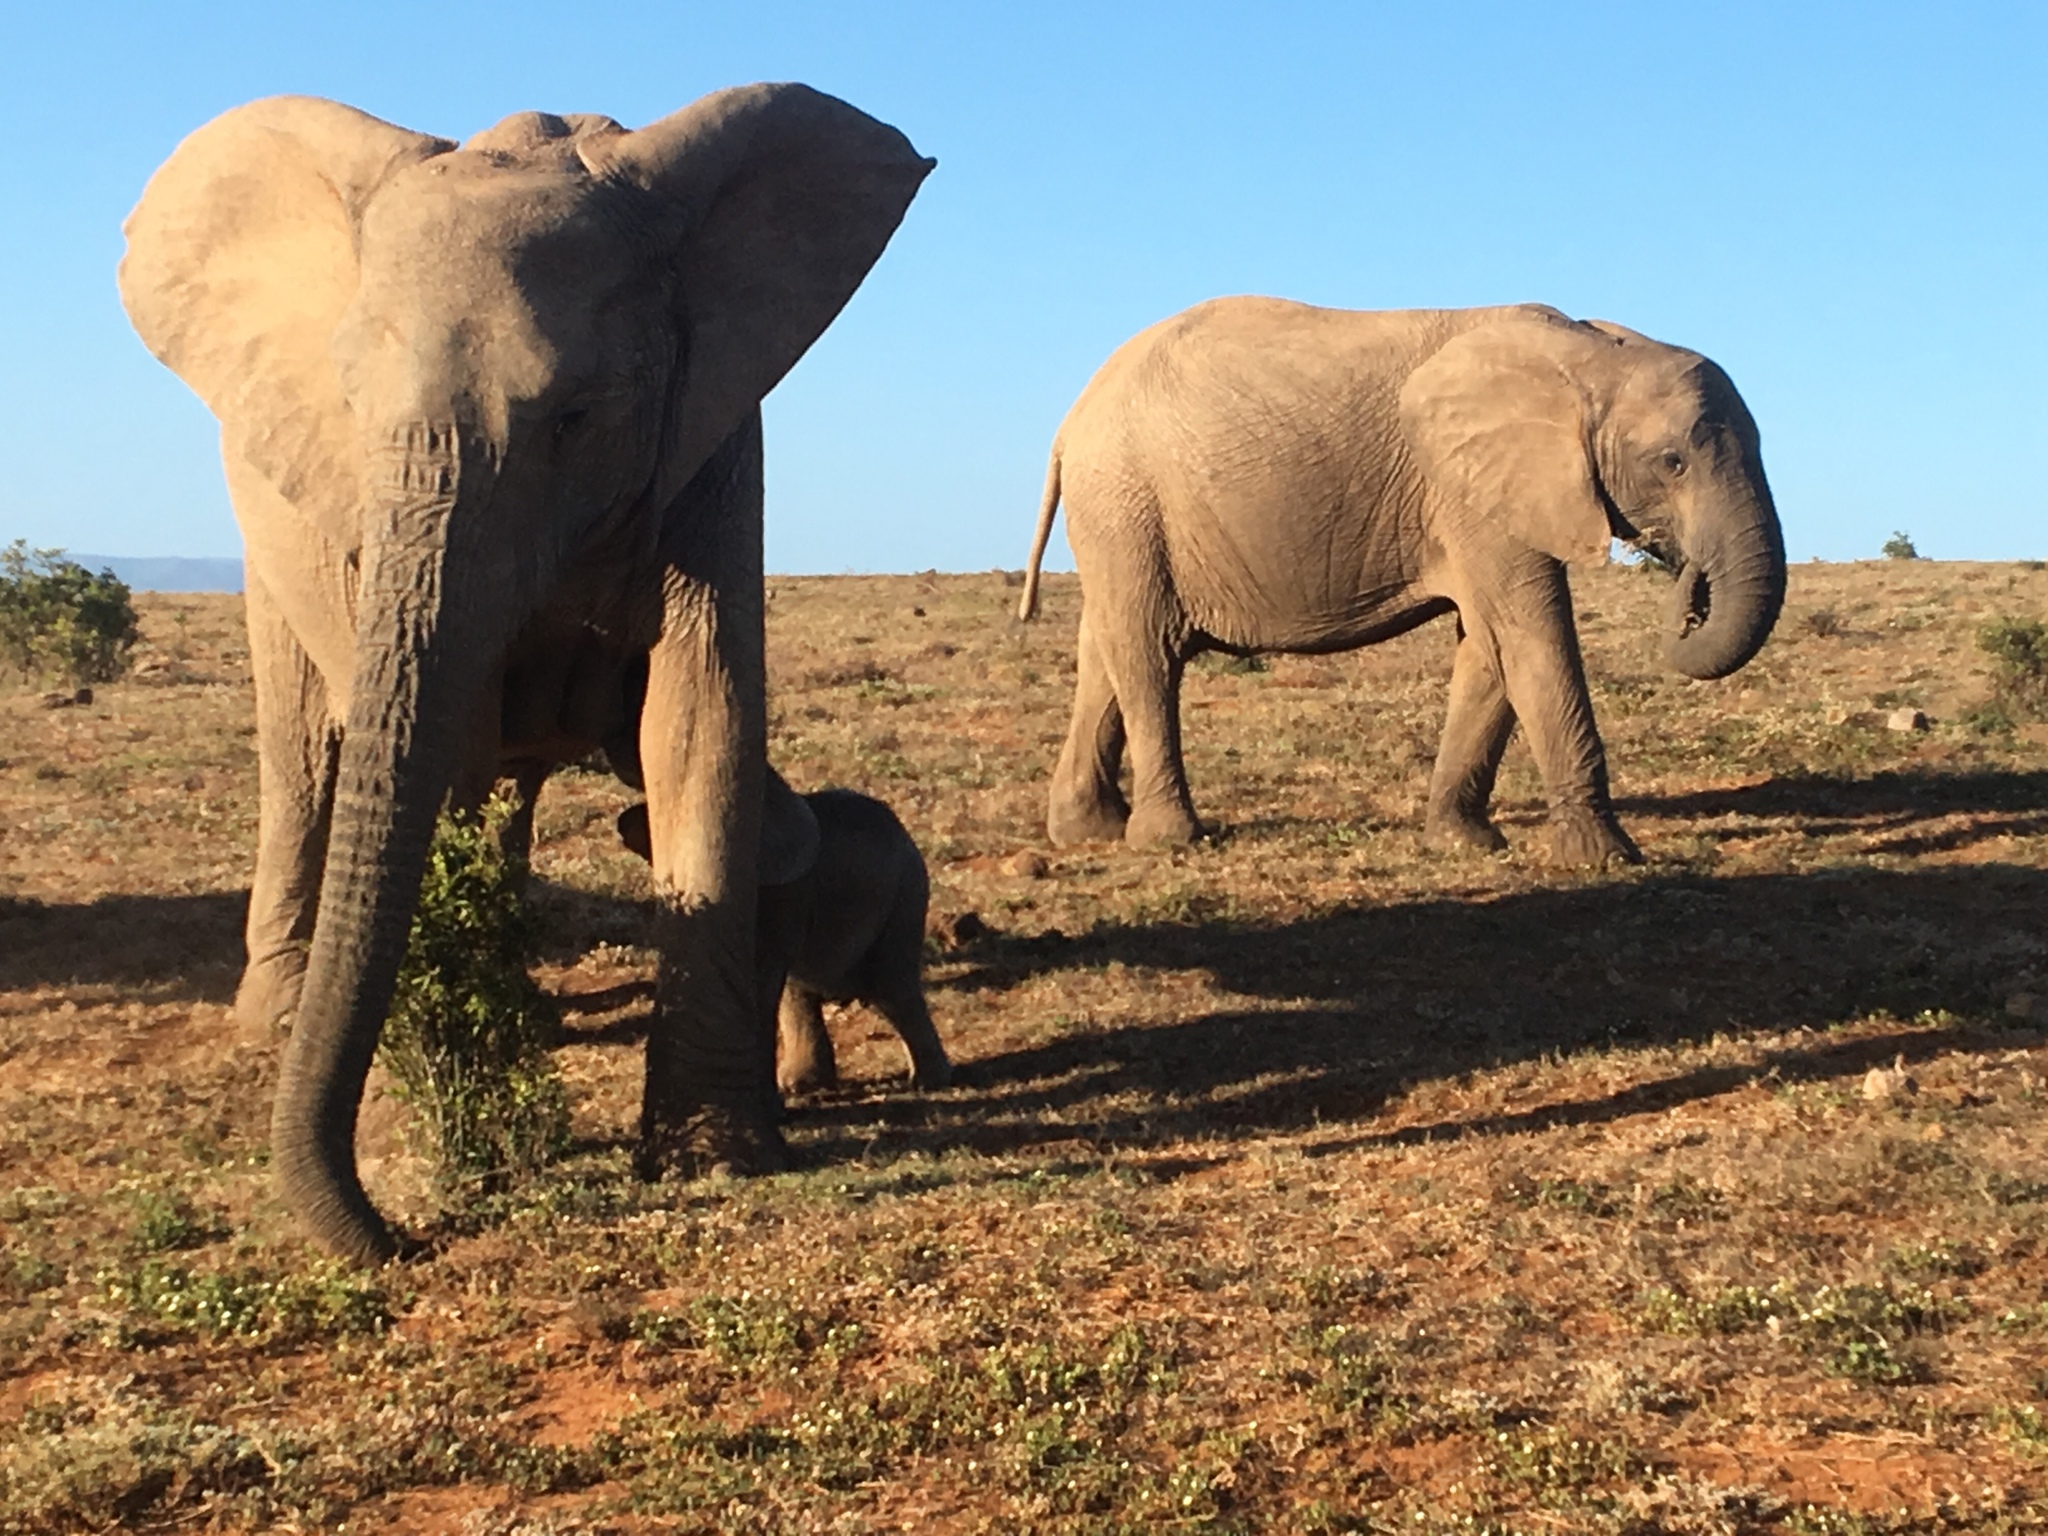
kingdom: Animalia
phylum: Chordata
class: Mammalia
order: Proboscidea
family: Elephantidae
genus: Loxodonta
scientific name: Loxodonta africana
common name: African elephant
